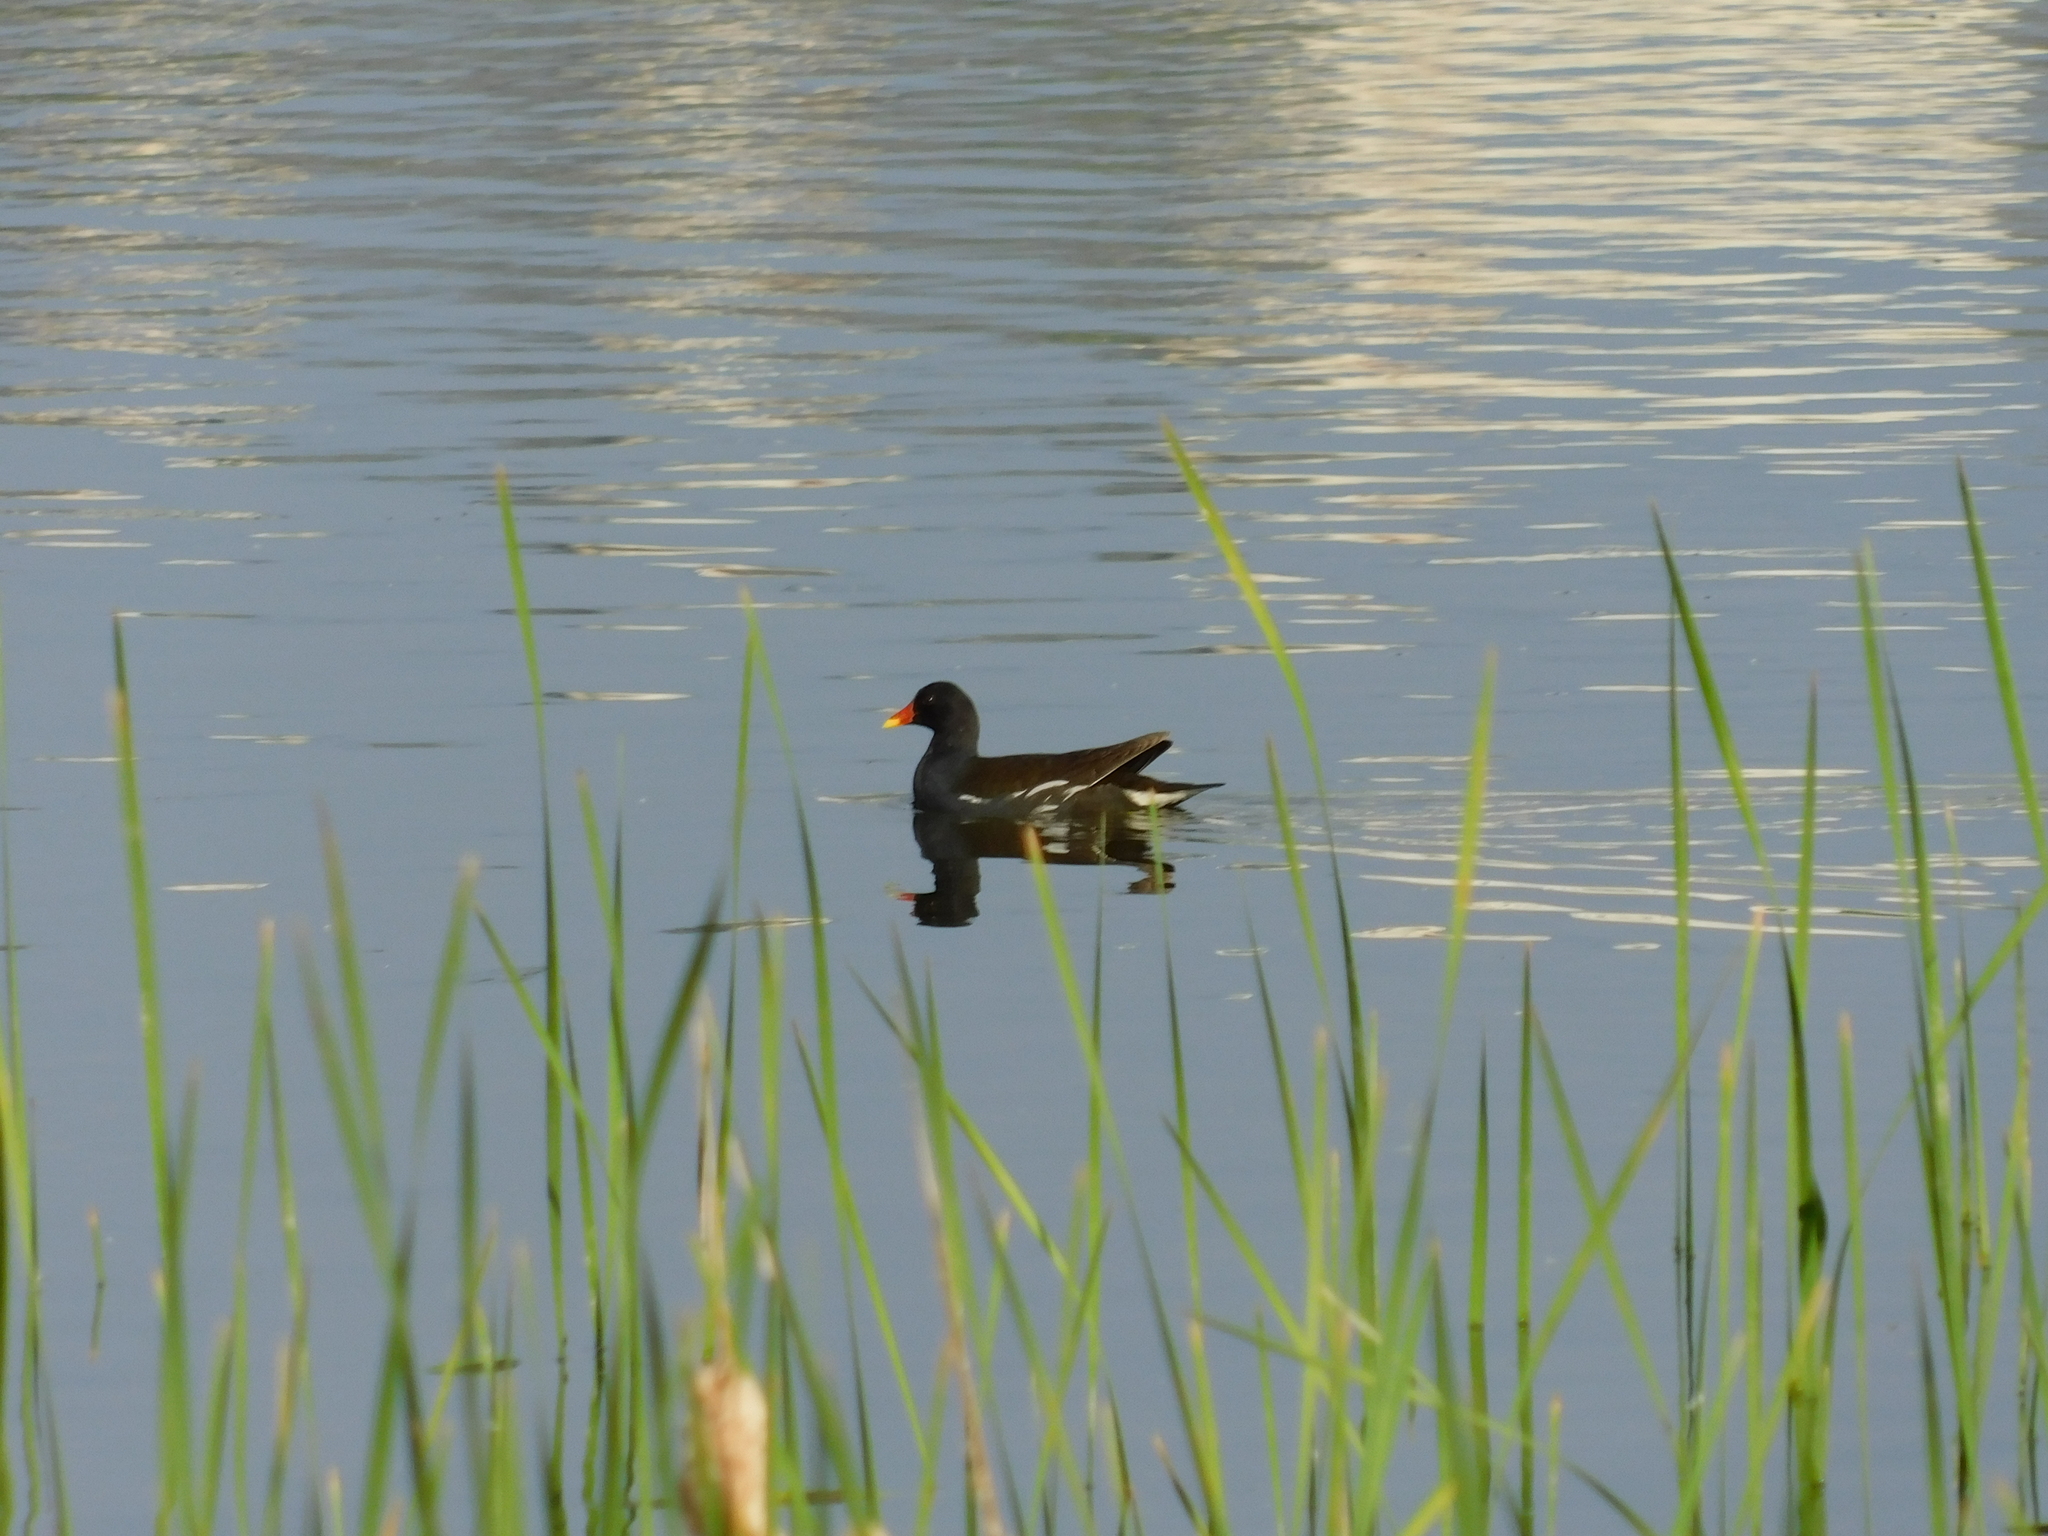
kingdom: Animalia
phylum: Chordata
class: Aves
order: Gruiformes
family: Rallidae
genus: Gallinula
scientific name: Gallinula chloropus
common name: Common moorhen
